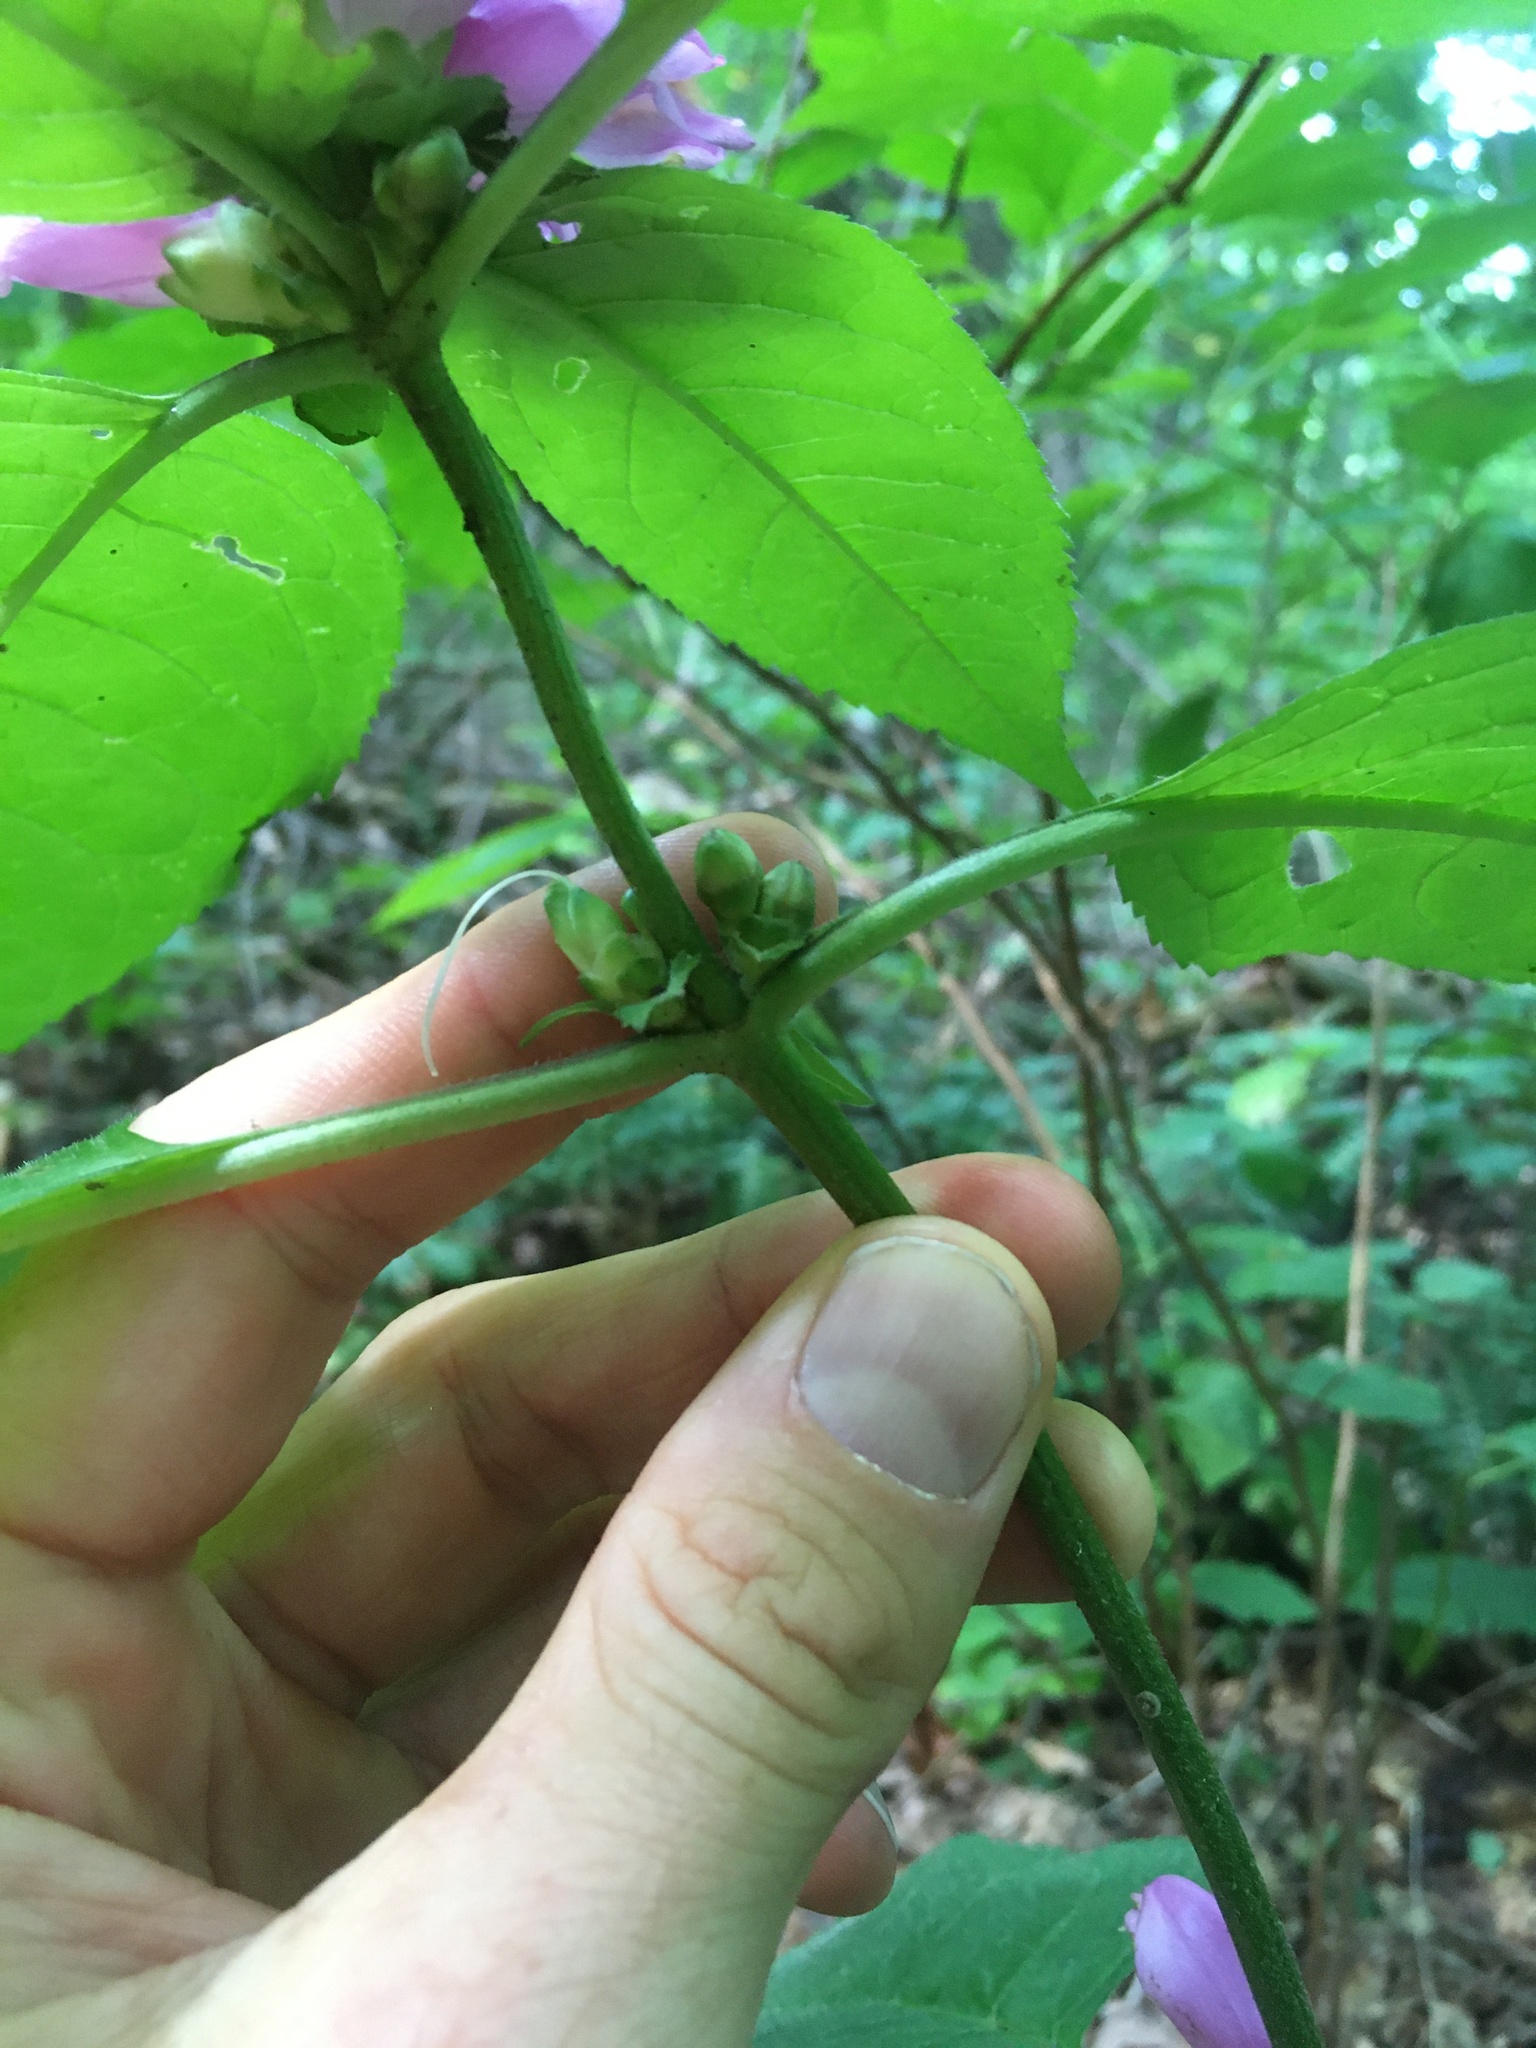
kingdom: Plantae
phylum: Tracheophyta
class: Magnoliopsida
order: Lamiales
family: Plantaginaceae
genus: Chelone
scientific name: Chelone lyonii
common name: Pink turtlehead
